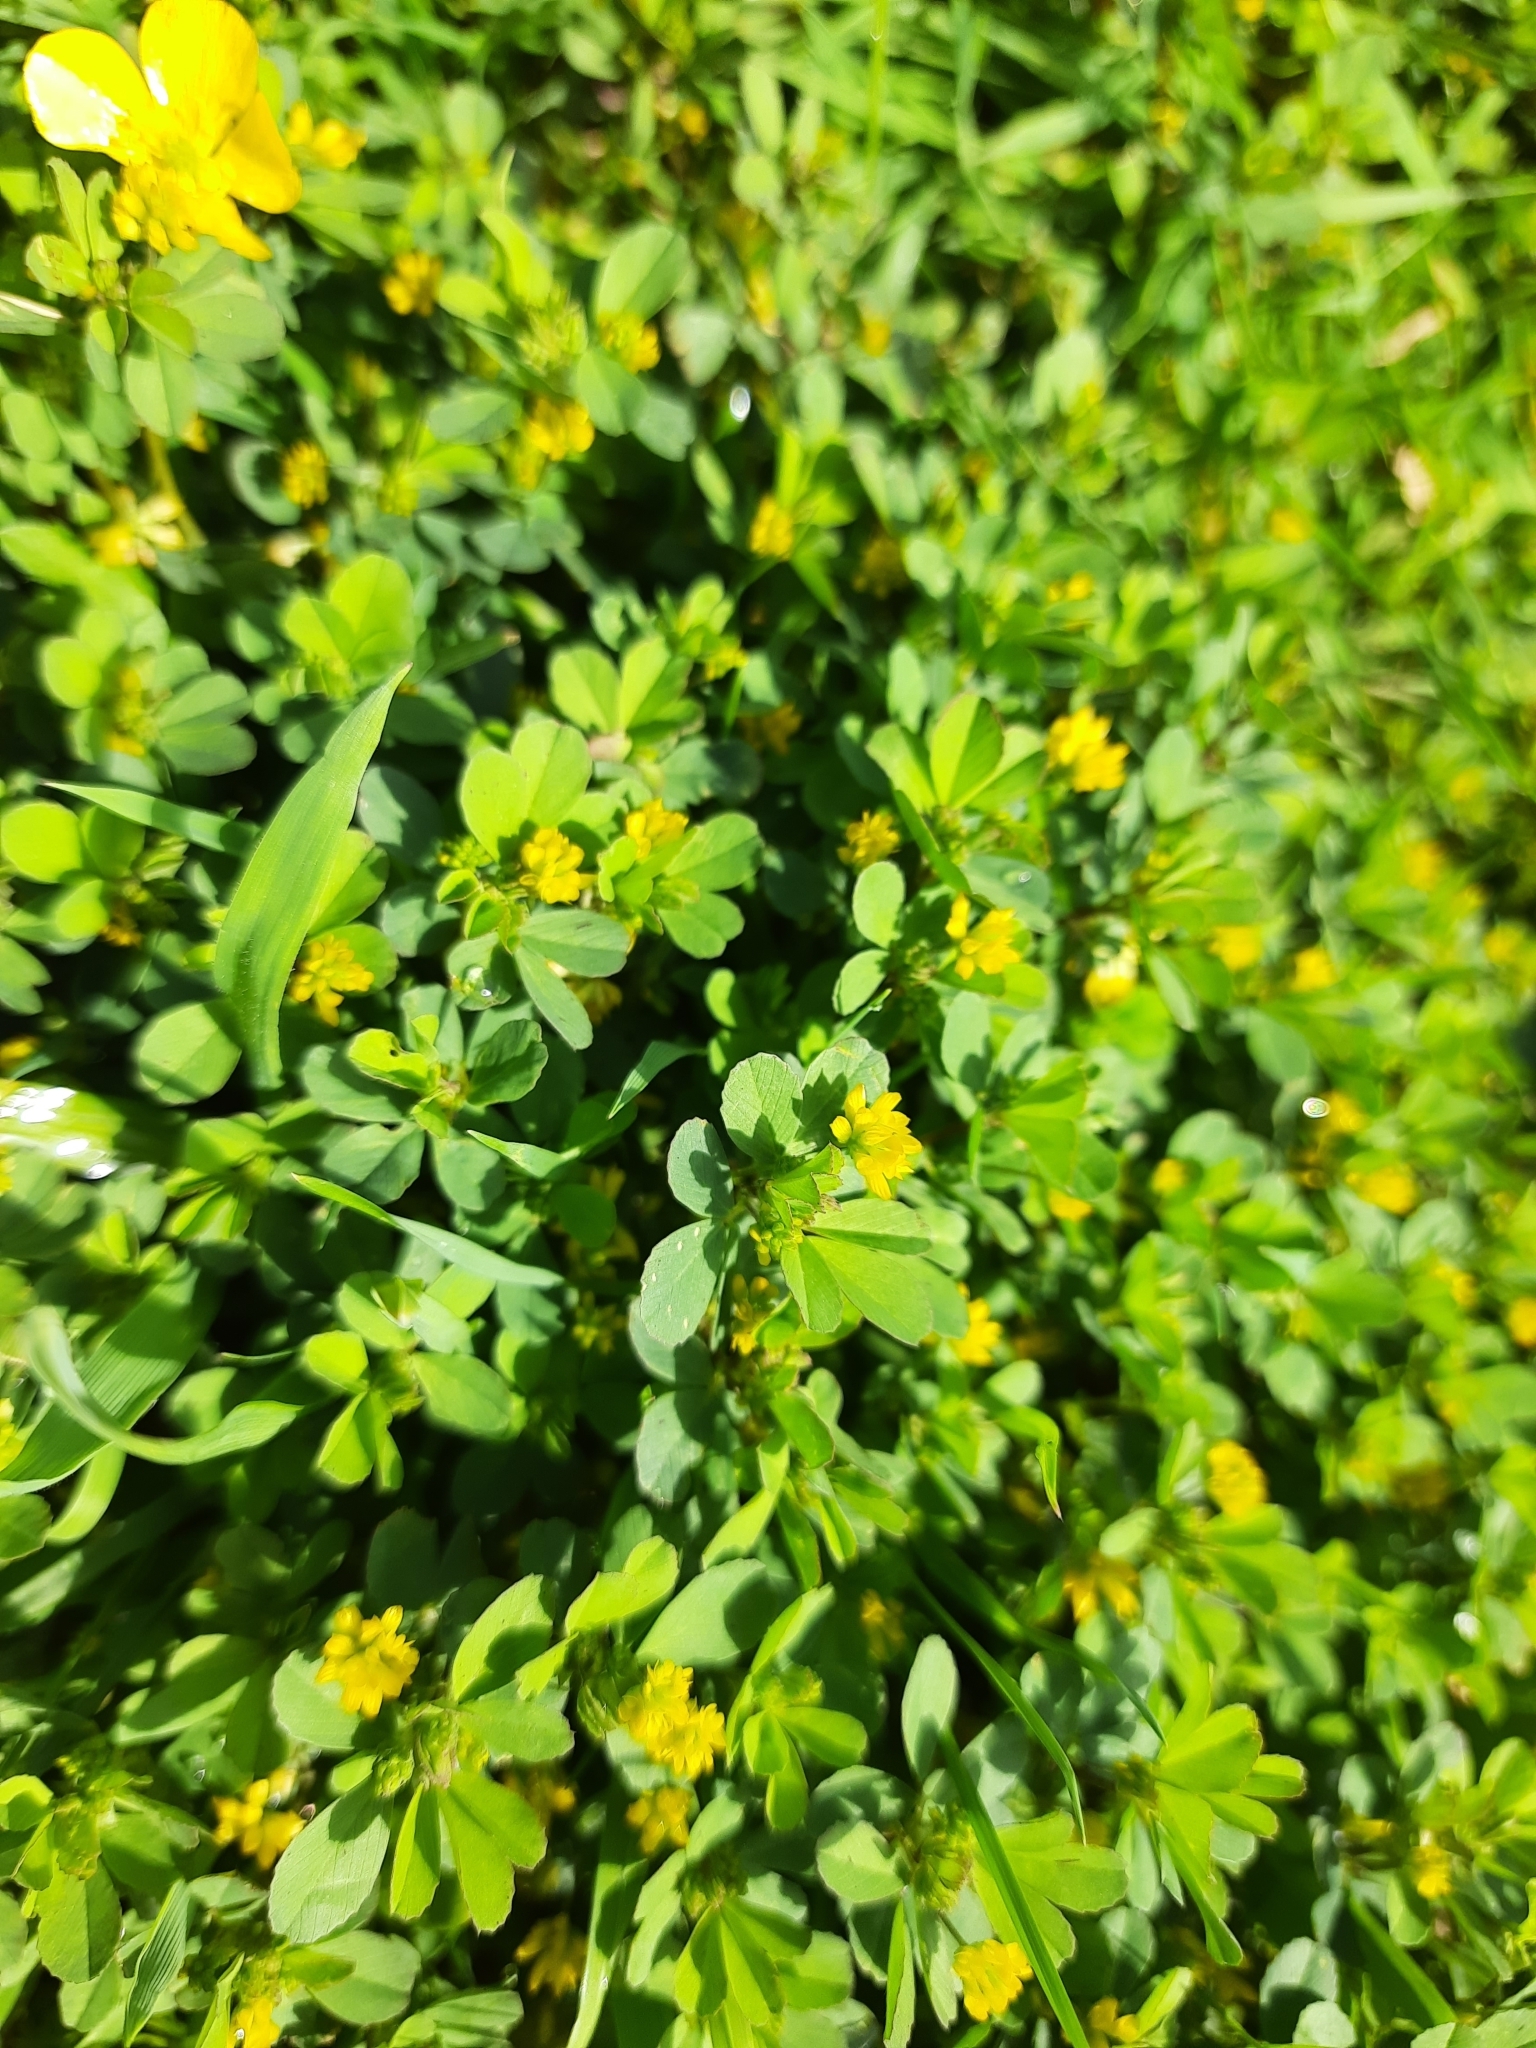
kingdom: Plantae
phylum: Tracheophyta
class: Magnoliopsida
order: Fabales
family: Fabaceae
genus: Trifolium
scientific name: Trifolium dubium
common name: Suckling clover
